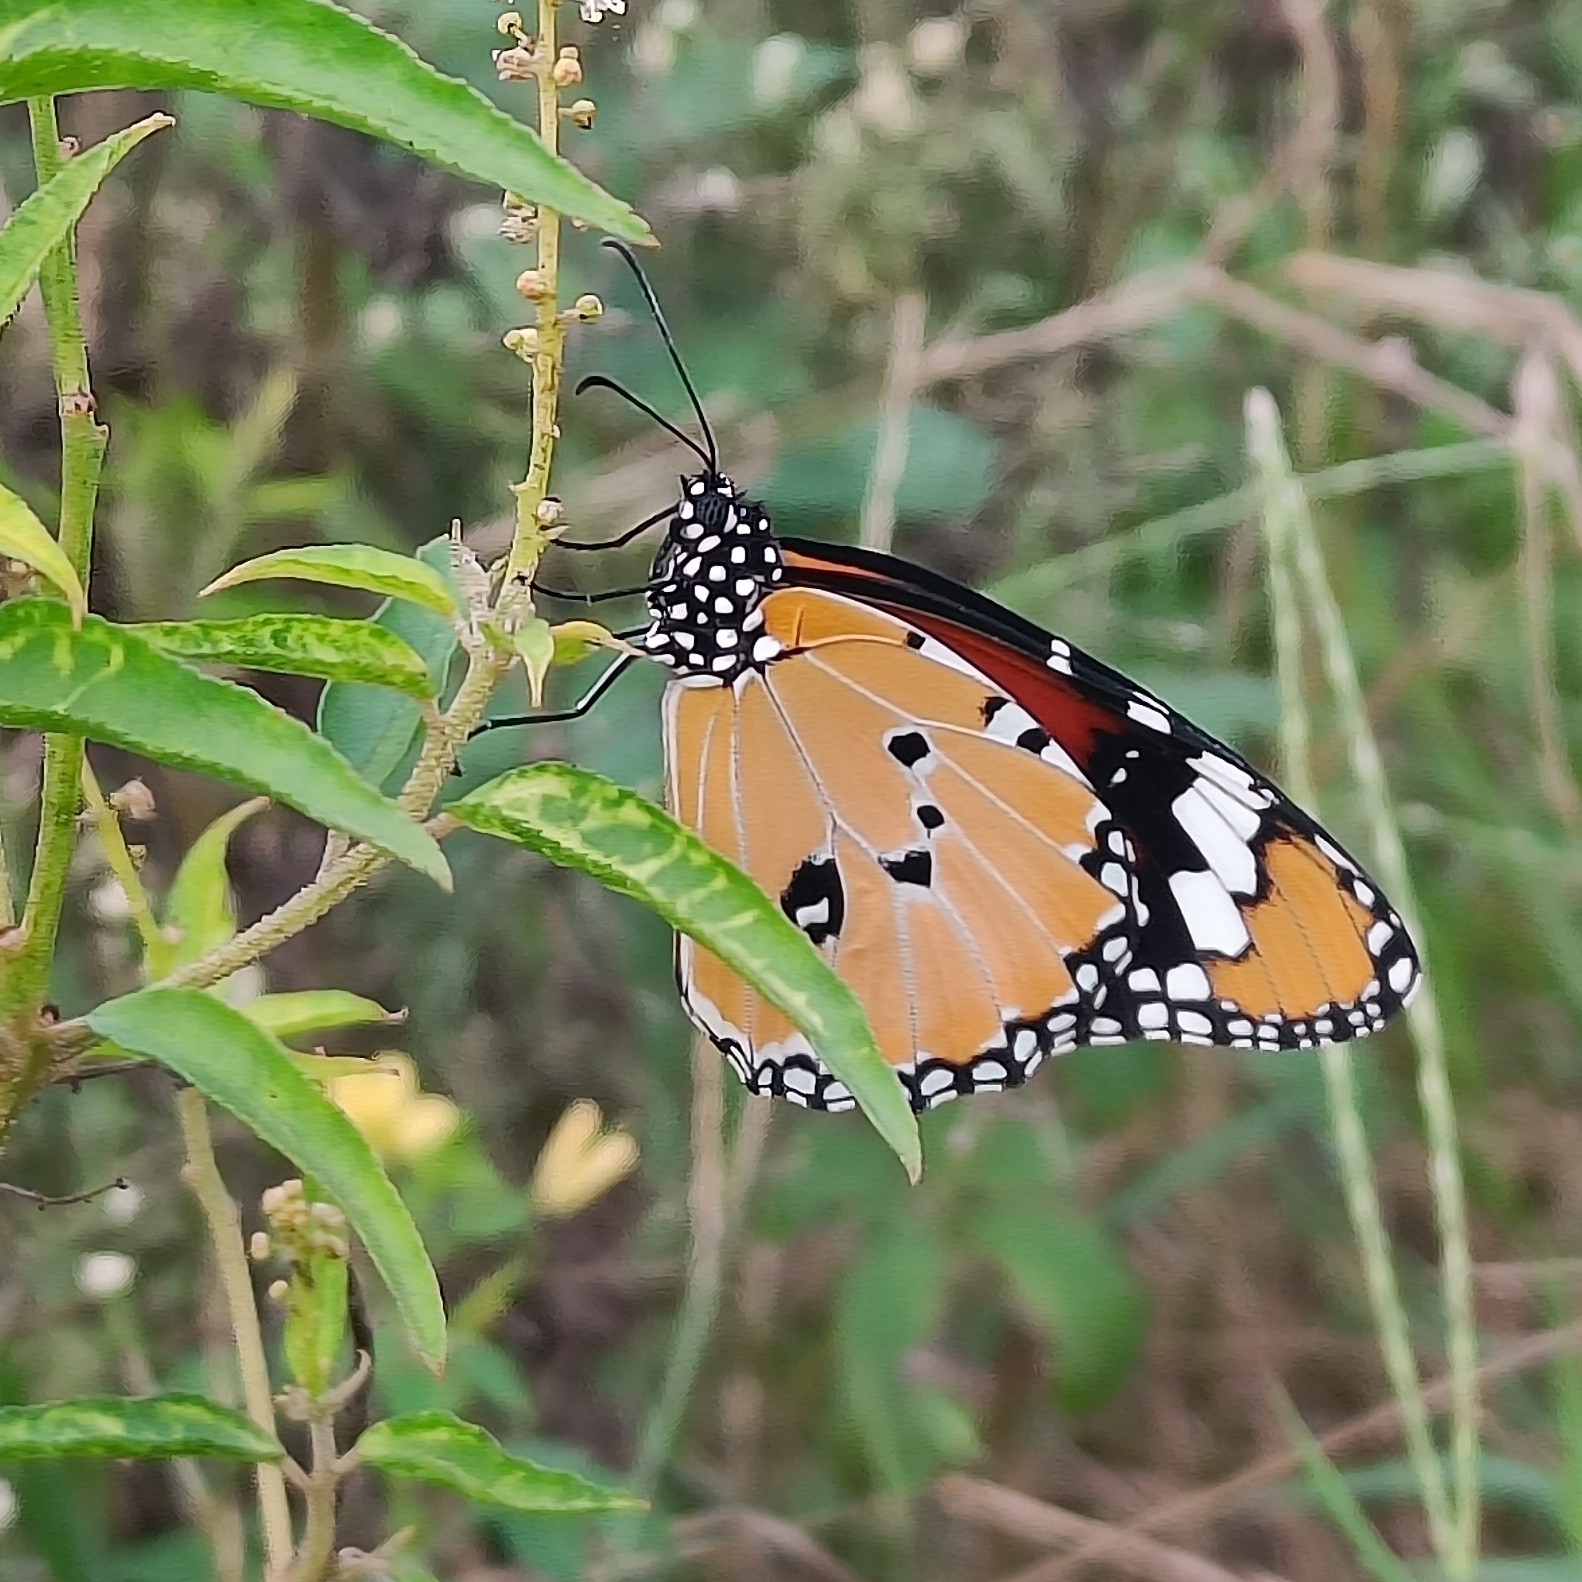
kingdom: Animalia
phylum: Arthropoda
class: Insecta
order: Lepidoptera
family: Nymphalidae
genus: Danaus
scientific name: Danaus chrysippus
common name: Plain tiger
